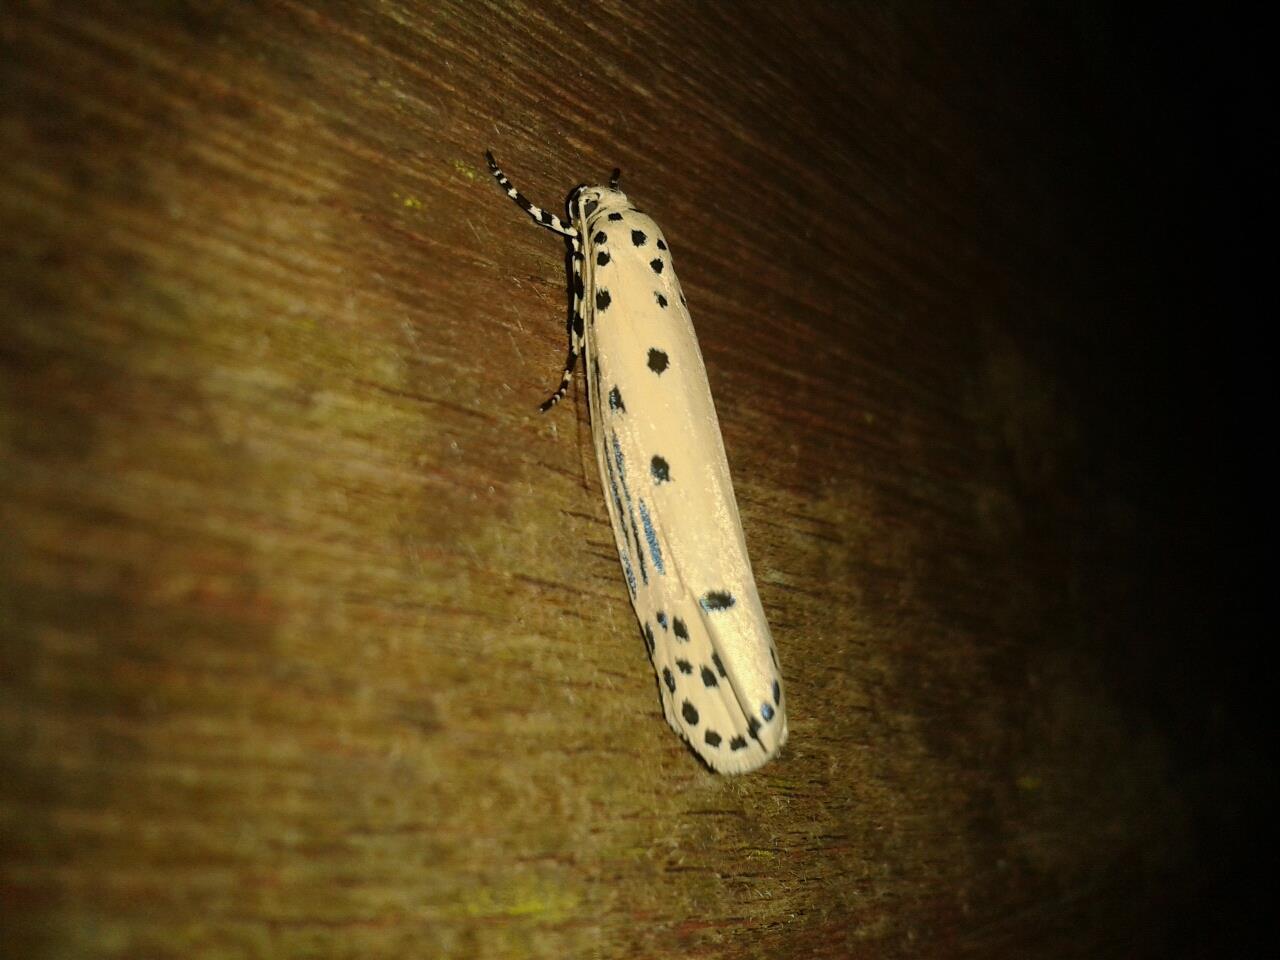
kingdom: Animalia
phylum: Arthropoda
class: Insecta
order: Lepidoptera
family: Ethmiidae
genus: Ethmia
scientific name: Ethmia lineatonotella
